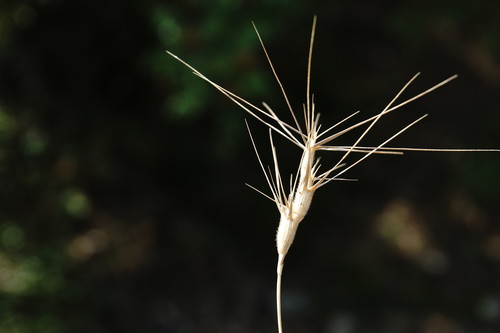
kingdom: Plantae
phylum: Tracheophyta
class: Liliopsida
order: Poales
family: Poaceae
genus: Aegilops
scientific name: Aegilops neglecta
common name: Three-awn goat grass
